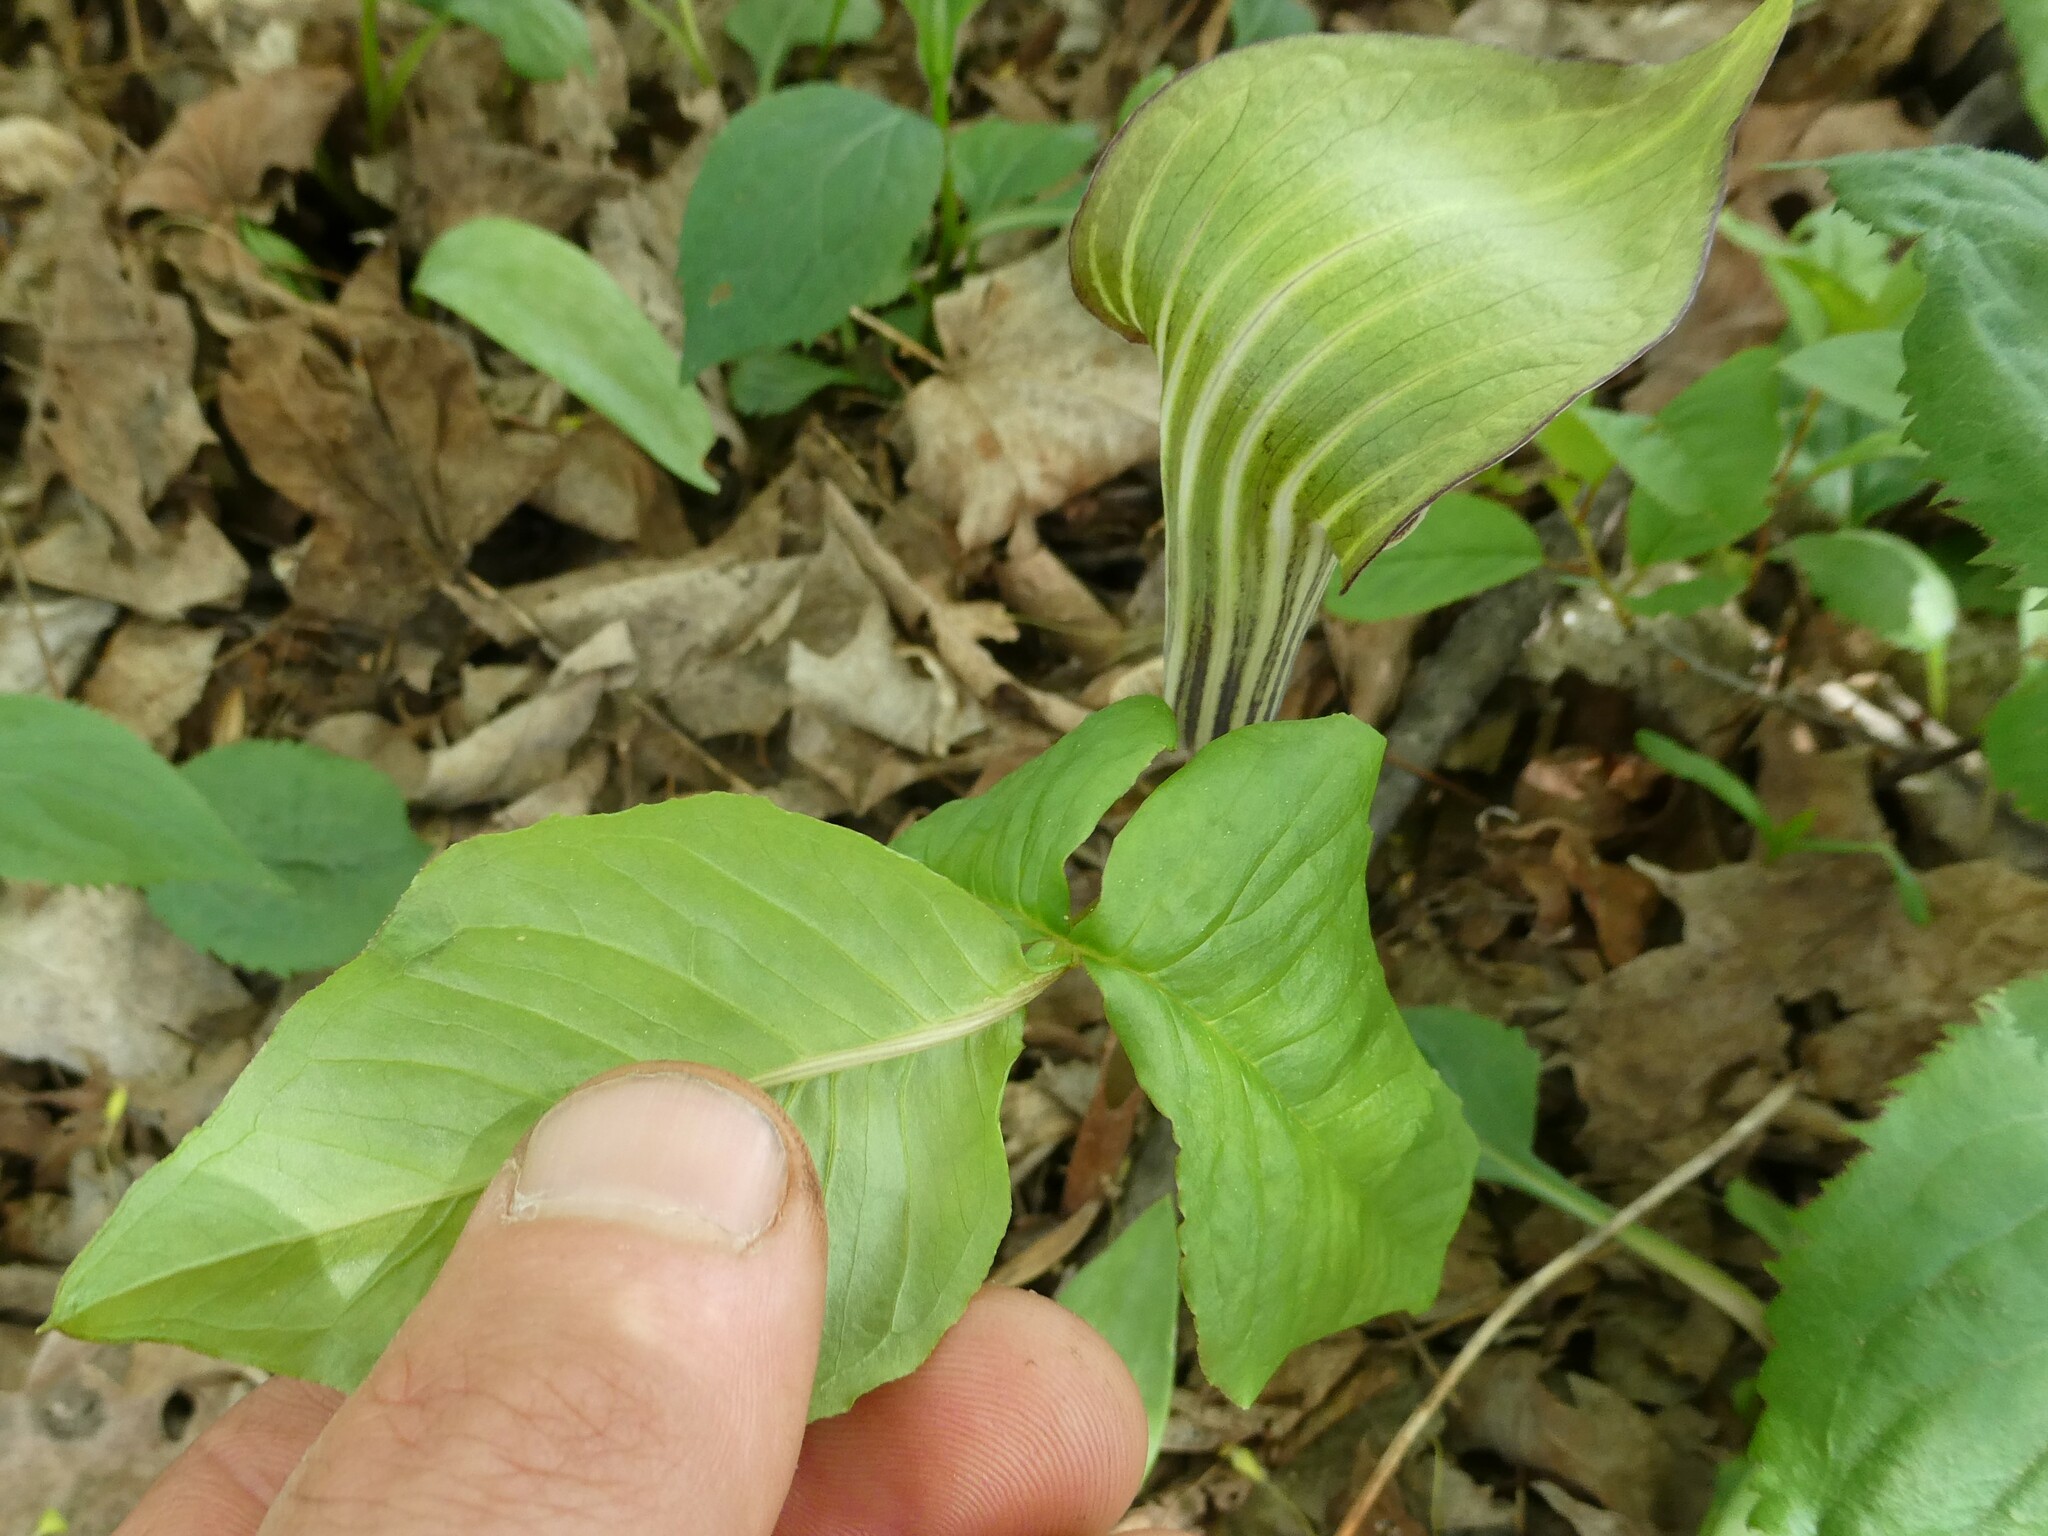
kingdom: Plantae
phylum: Tracheophyta
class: Liliopsida
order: Alismatales
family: Araceae
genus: Arisaema
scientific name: Arisaema triphyllum
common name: Jack-in-the-pulpit
